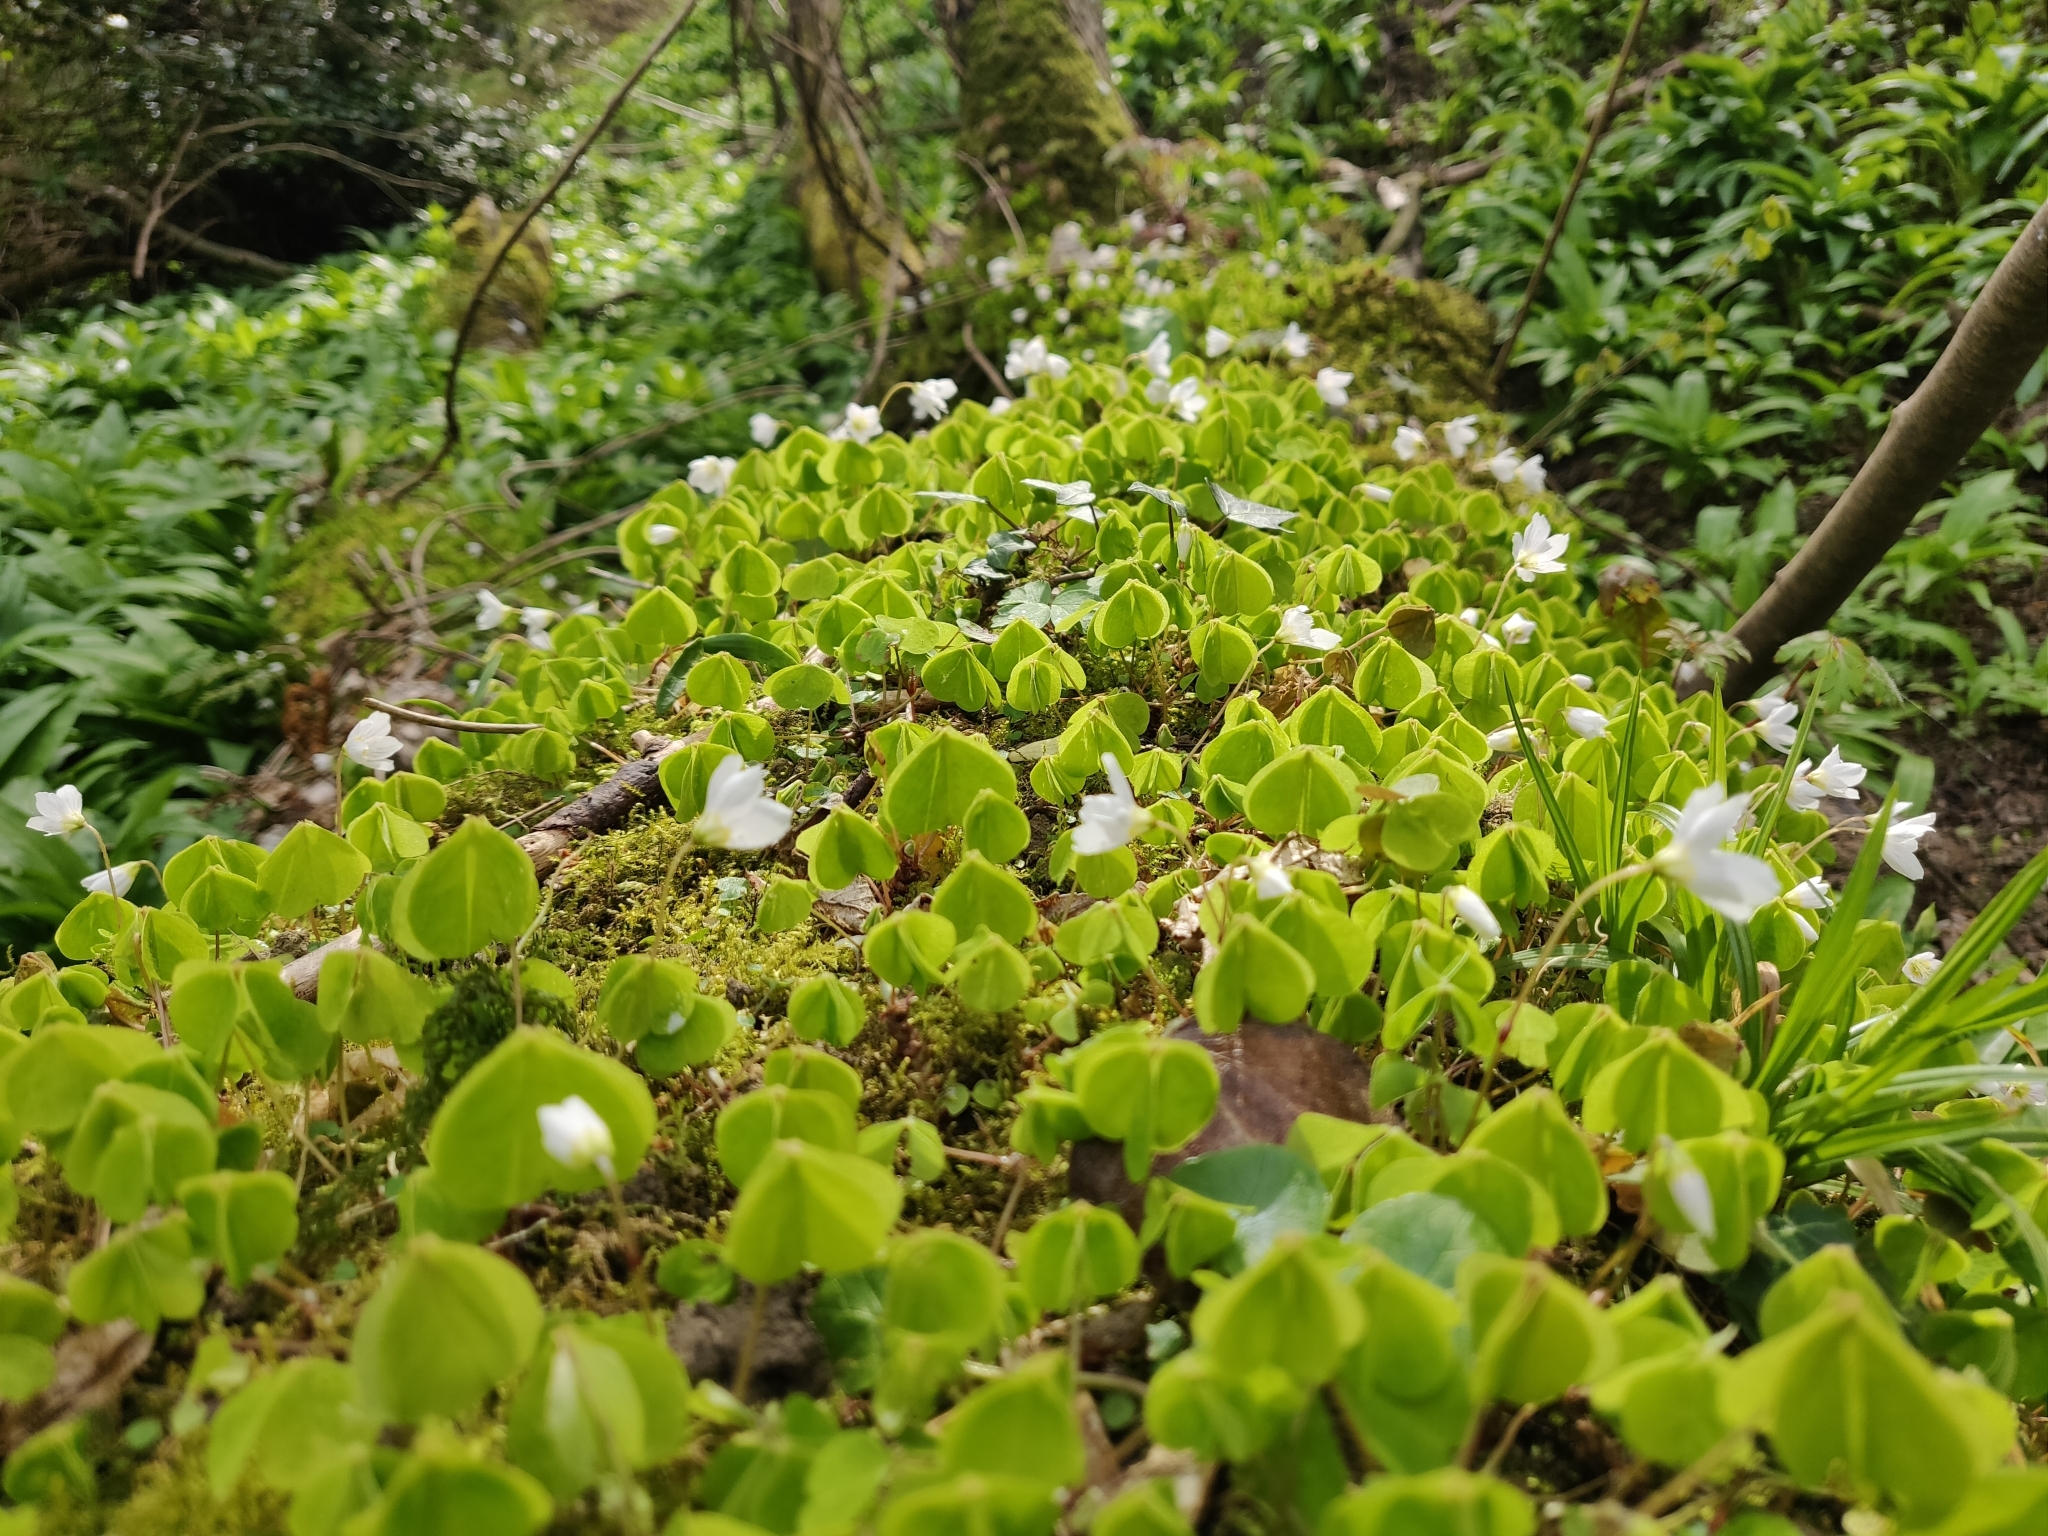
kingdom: Plantae
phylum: Tracheophyta
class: Magnoliopsida
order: Oxalidales
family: Oxalidaceae
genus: Oxalis
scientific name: Oxalis acetosella
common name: Wood-sorrel
